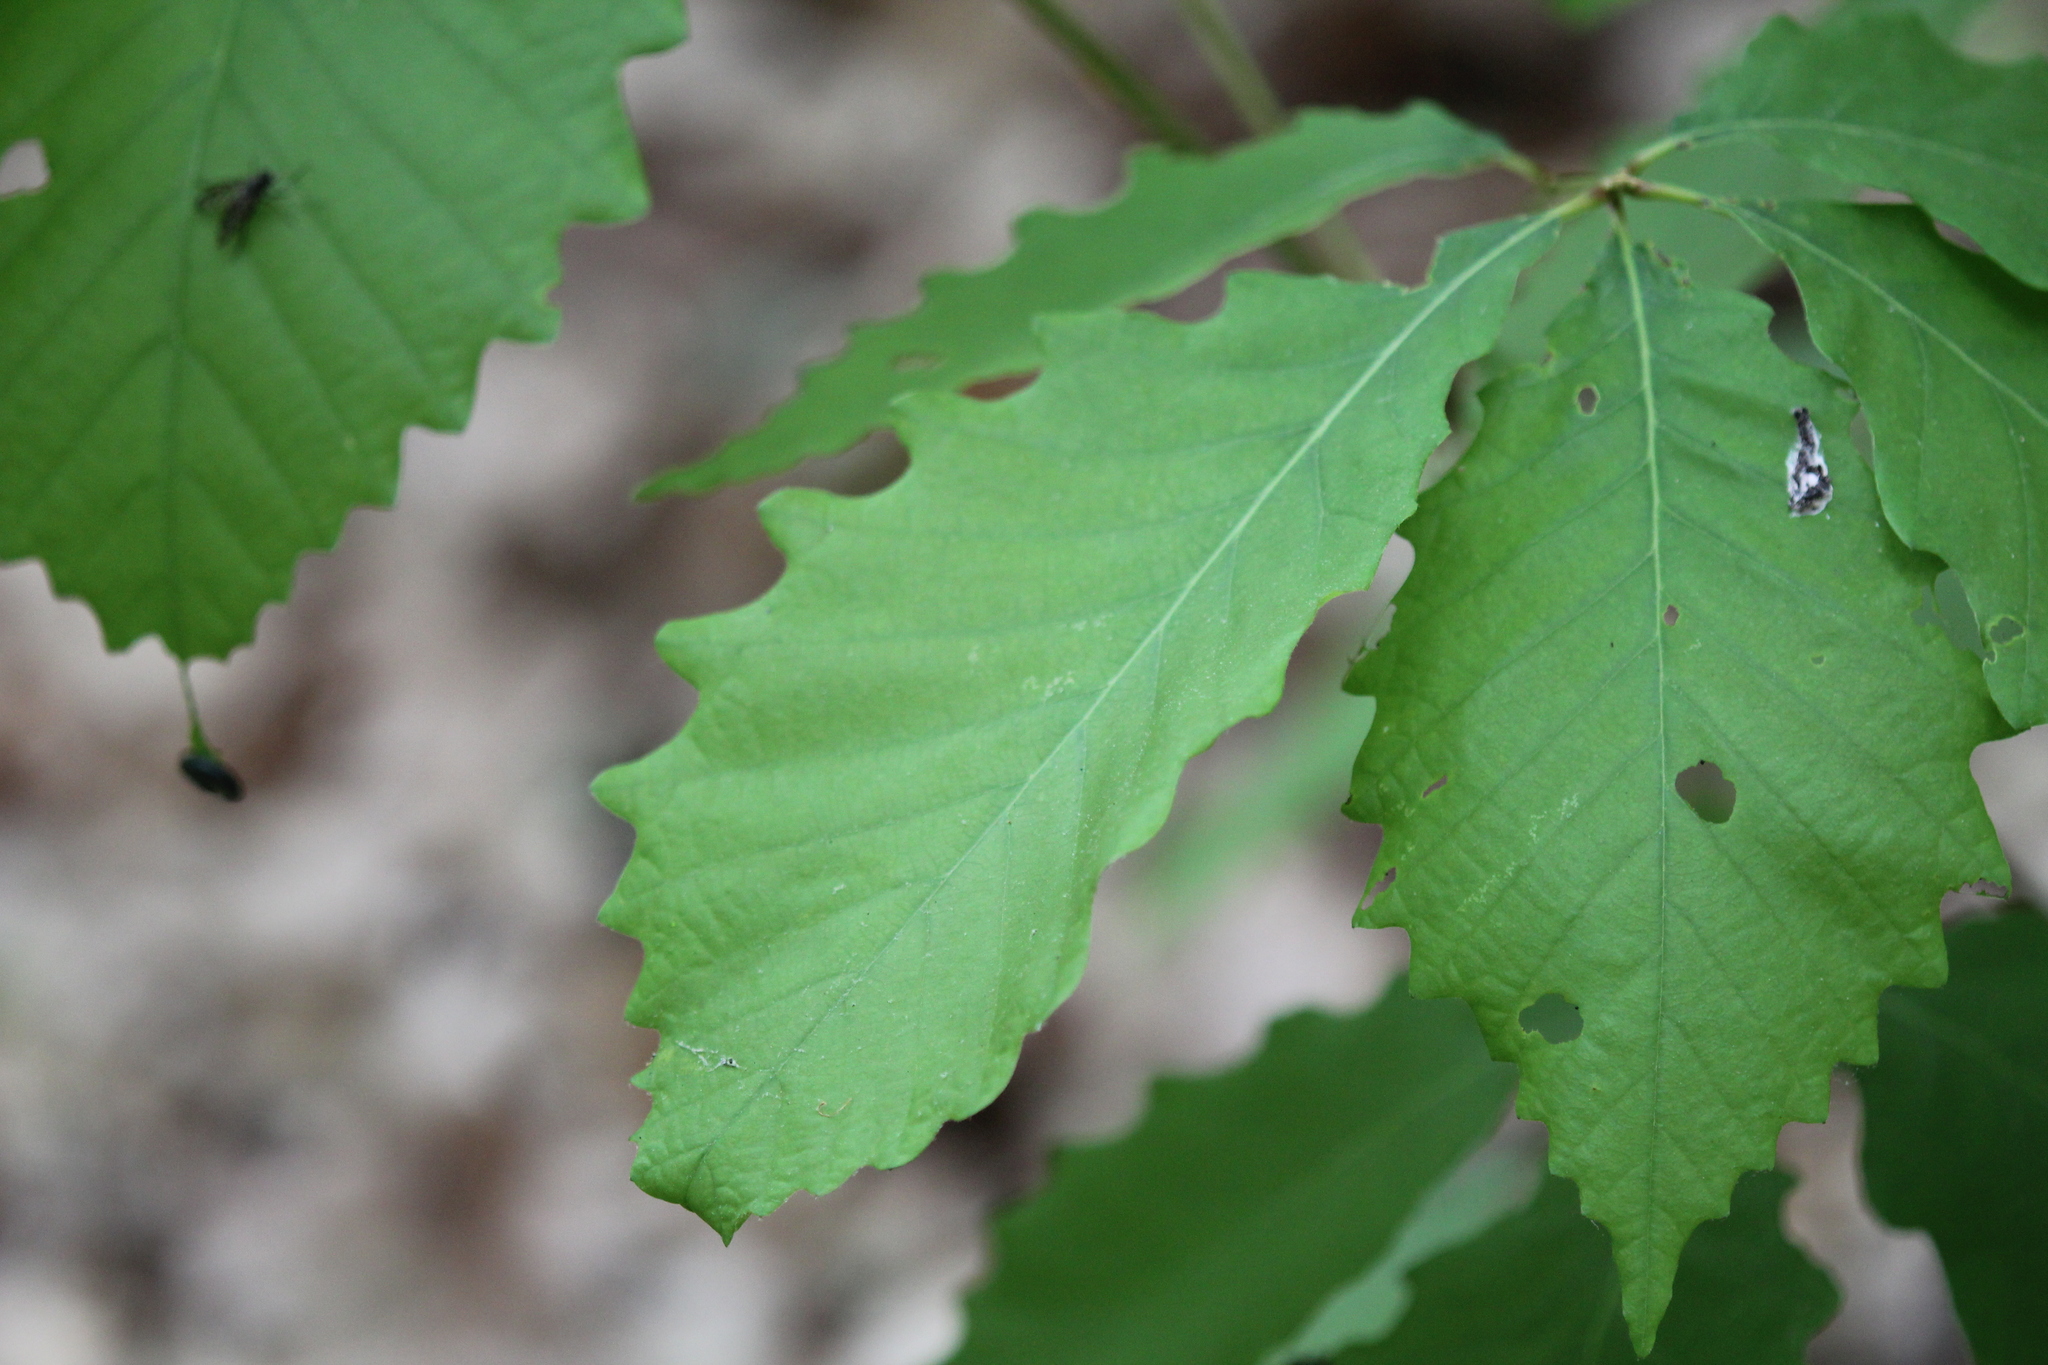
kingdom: Plantae
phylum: Tracheophyta
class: Magnoliopsida
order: Fagales
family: Fagaceae
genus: Quercus
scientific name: Quercus montana
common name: Chestnut oak
